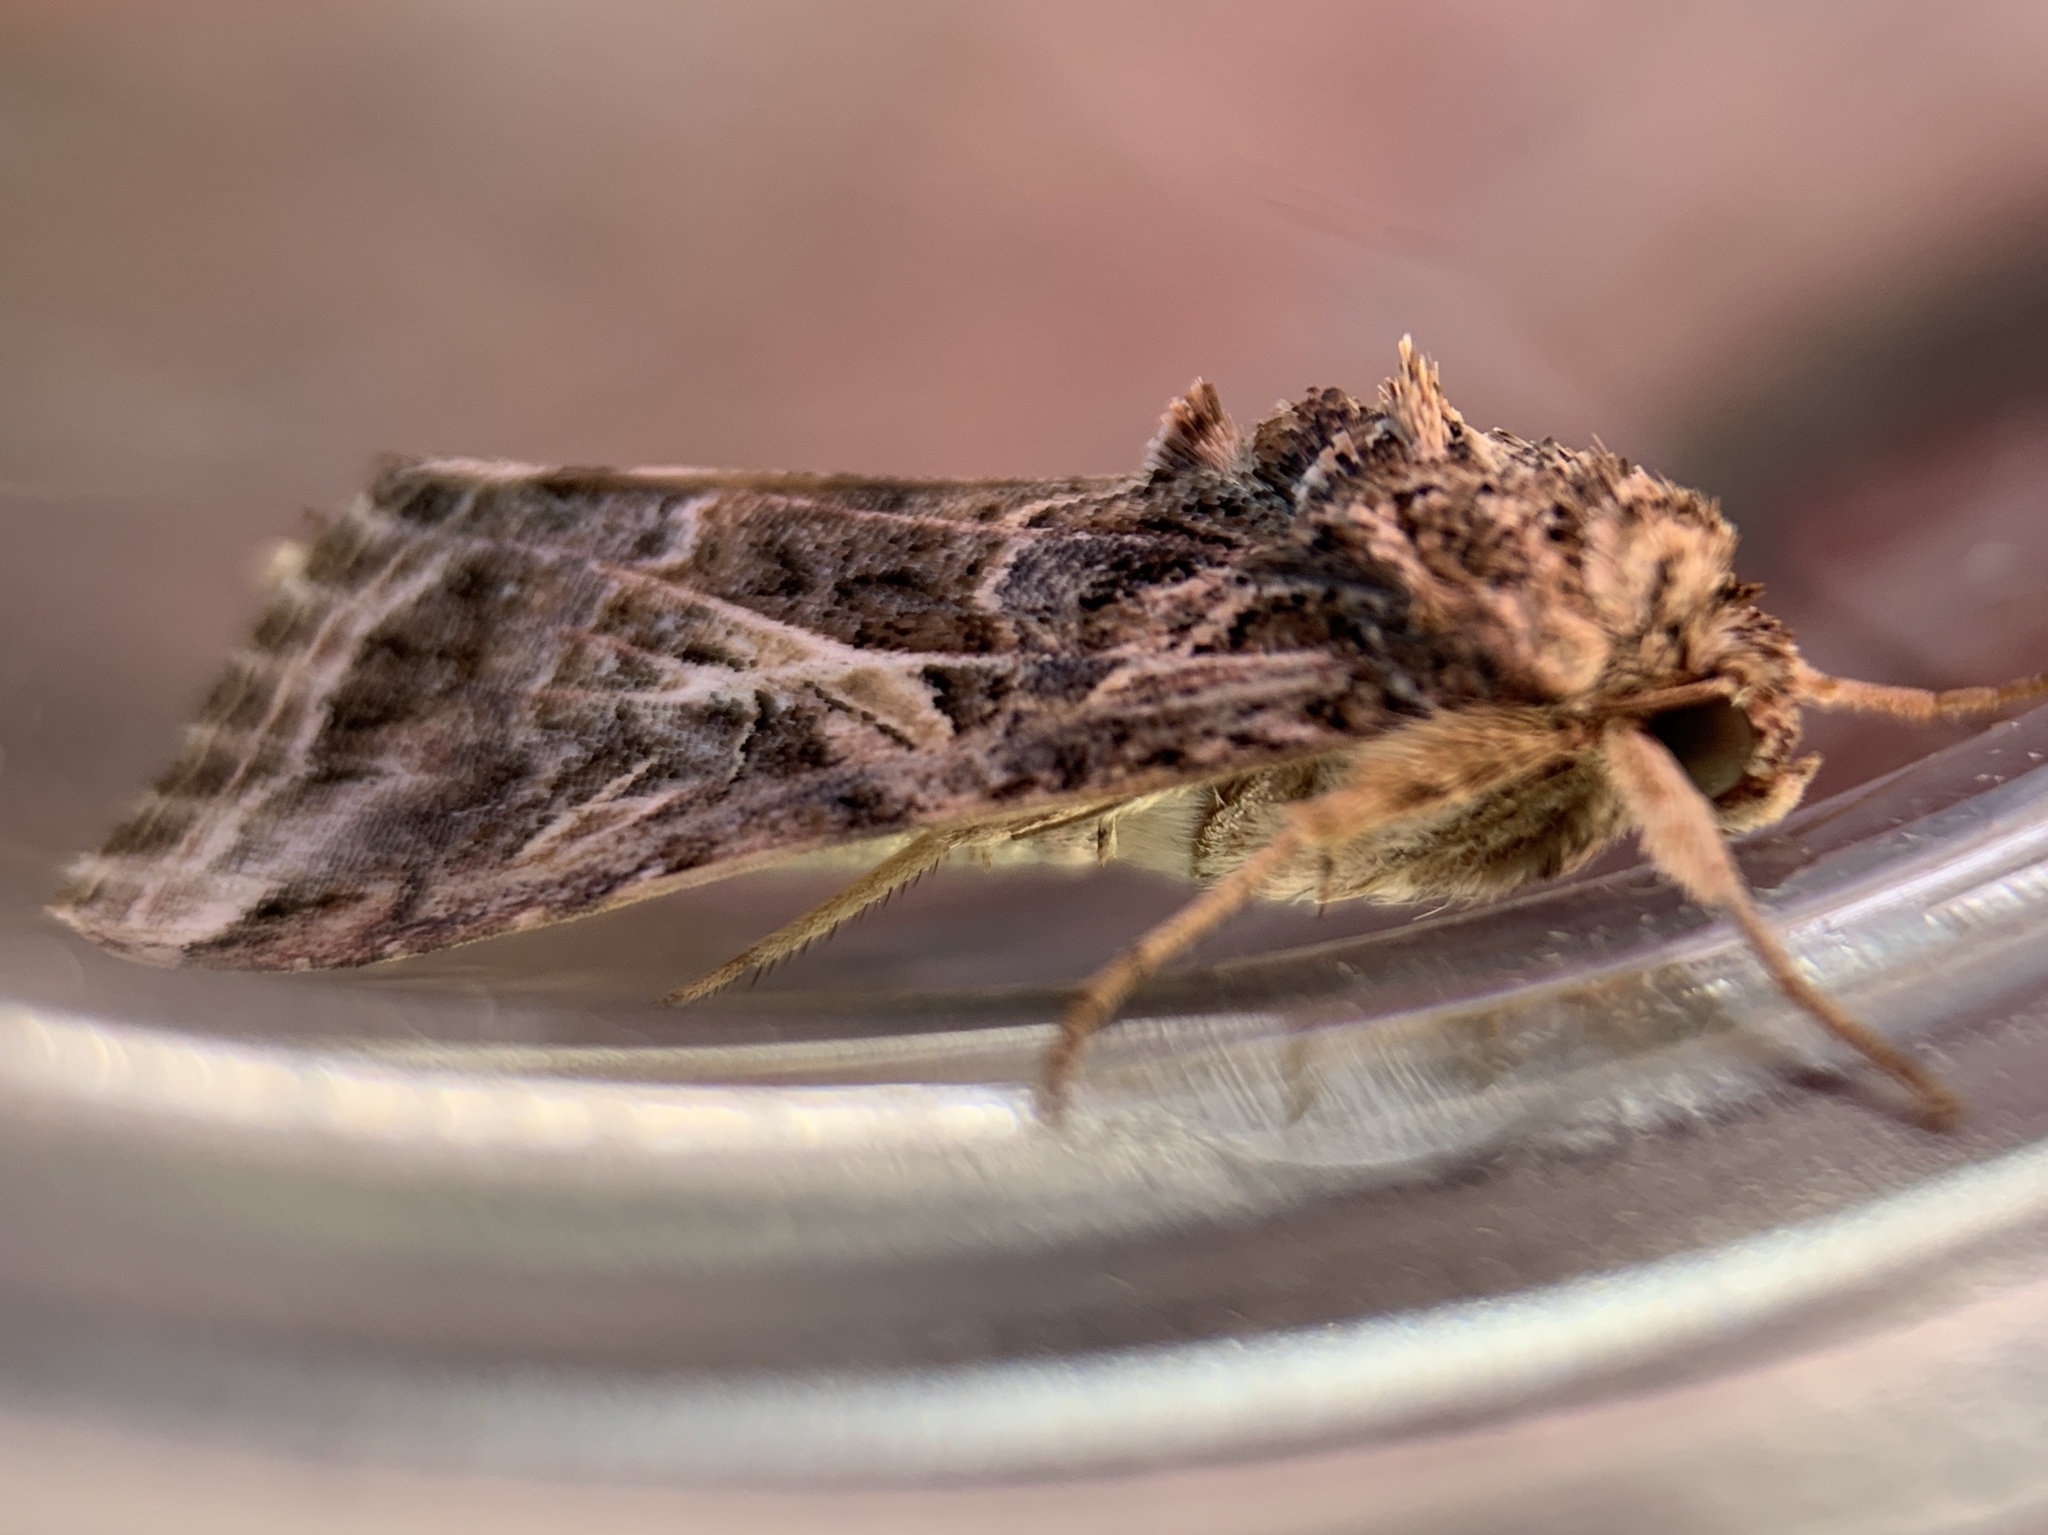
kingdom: Animalia
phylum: Arthropoda
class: Insecta
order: Lepidoptera
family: Noctuidae
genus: Spodoptera
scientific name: Spodoptera ornithogalli
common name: Yellow-striped armyworm
